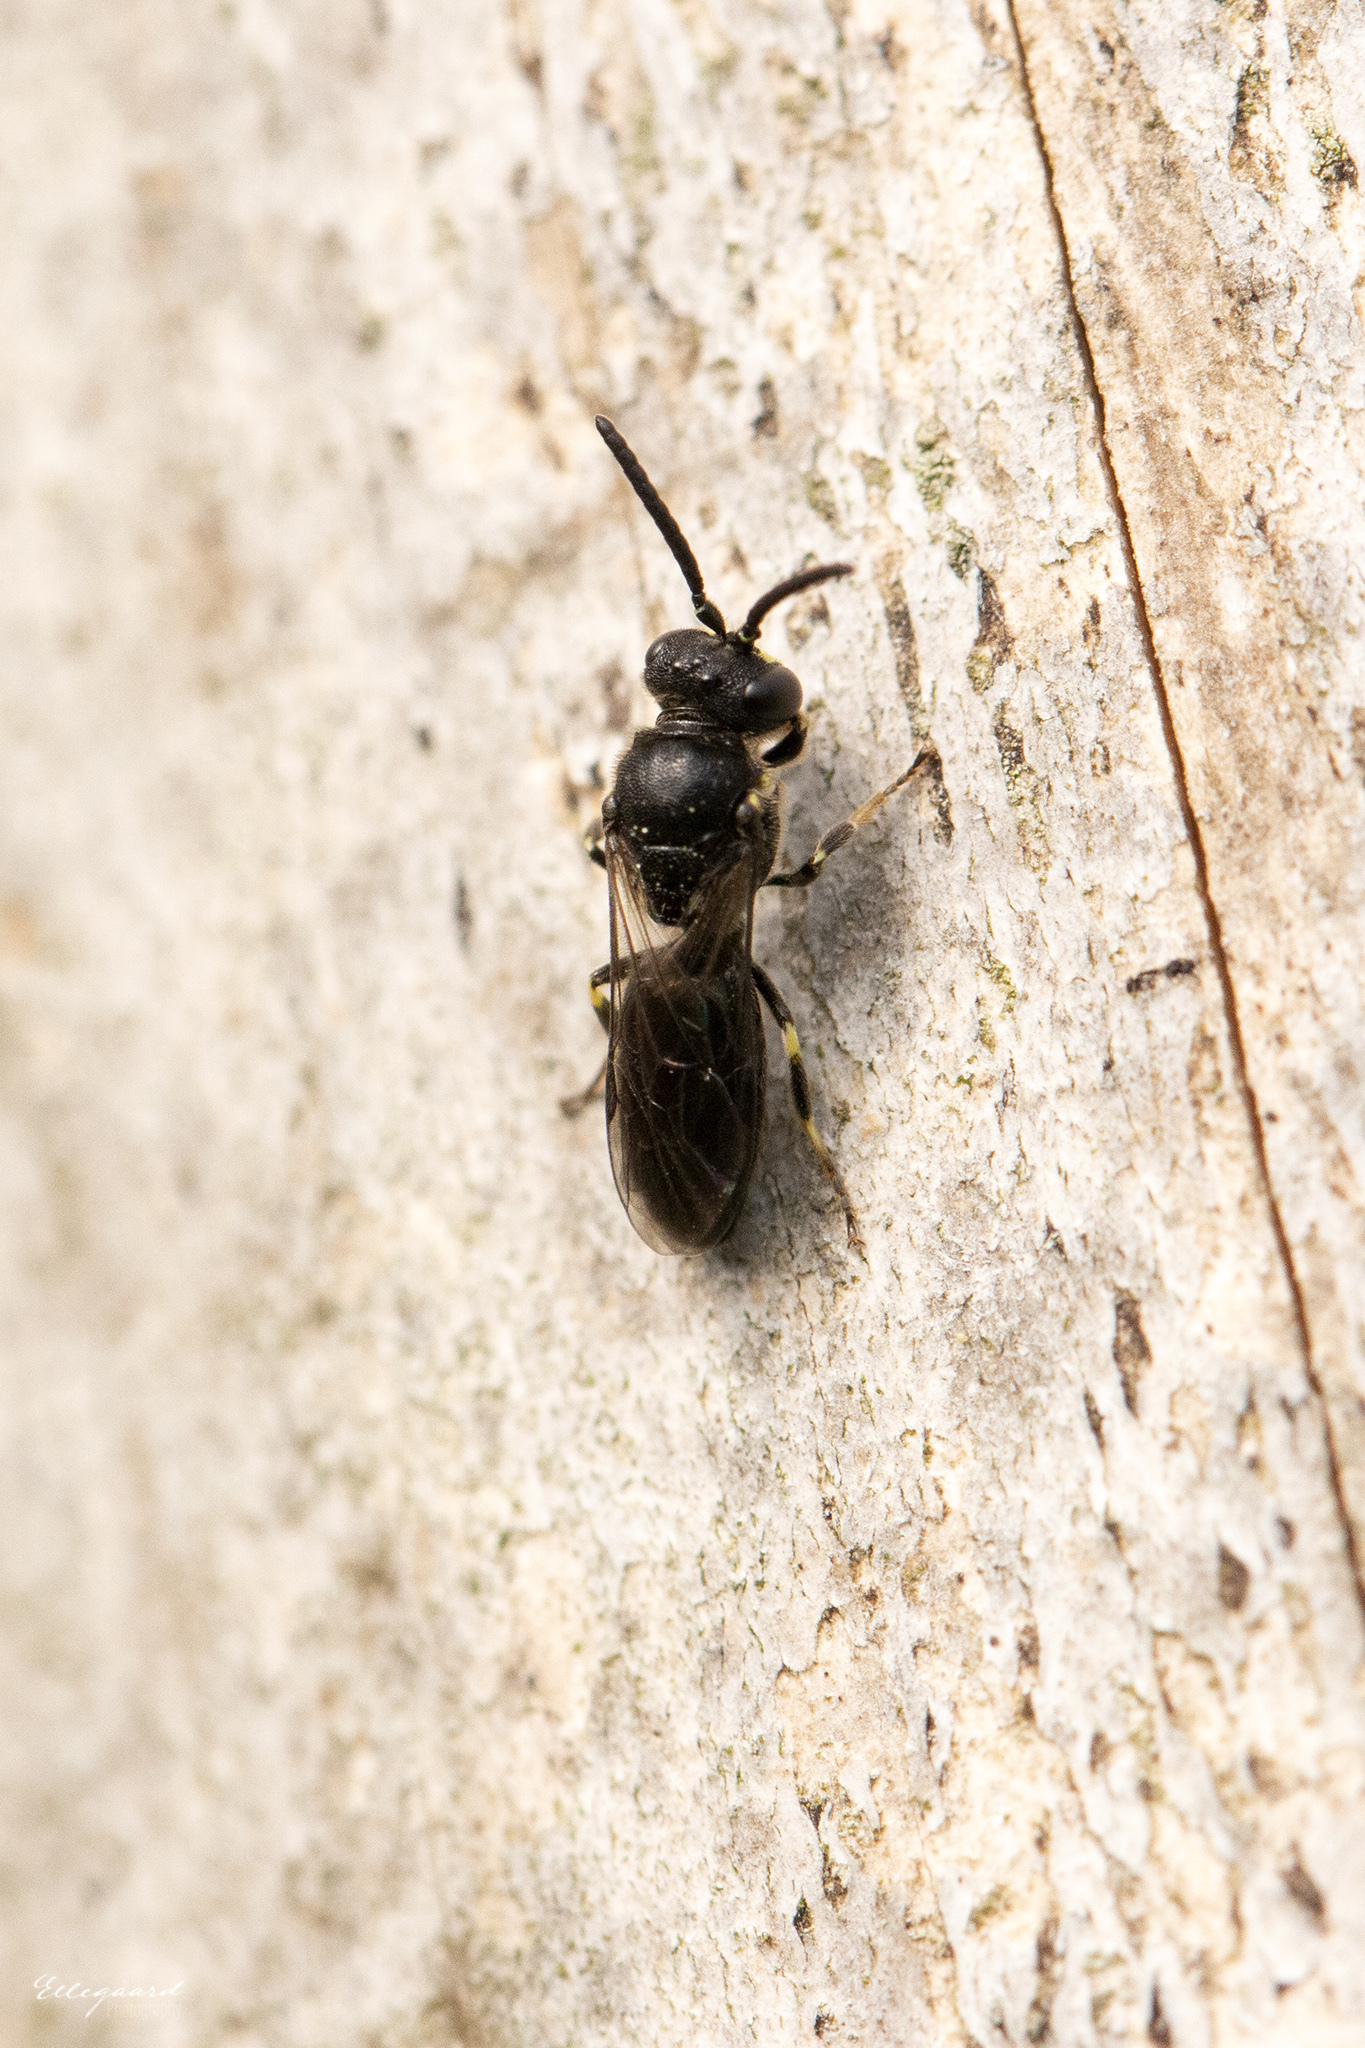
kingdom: Animalia
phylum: Arthropoda
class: Insecta
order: Hymenoptera
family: Colletidae
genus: Hylaeus
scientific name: Hylaeus communis
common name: Common yellow-face bee
